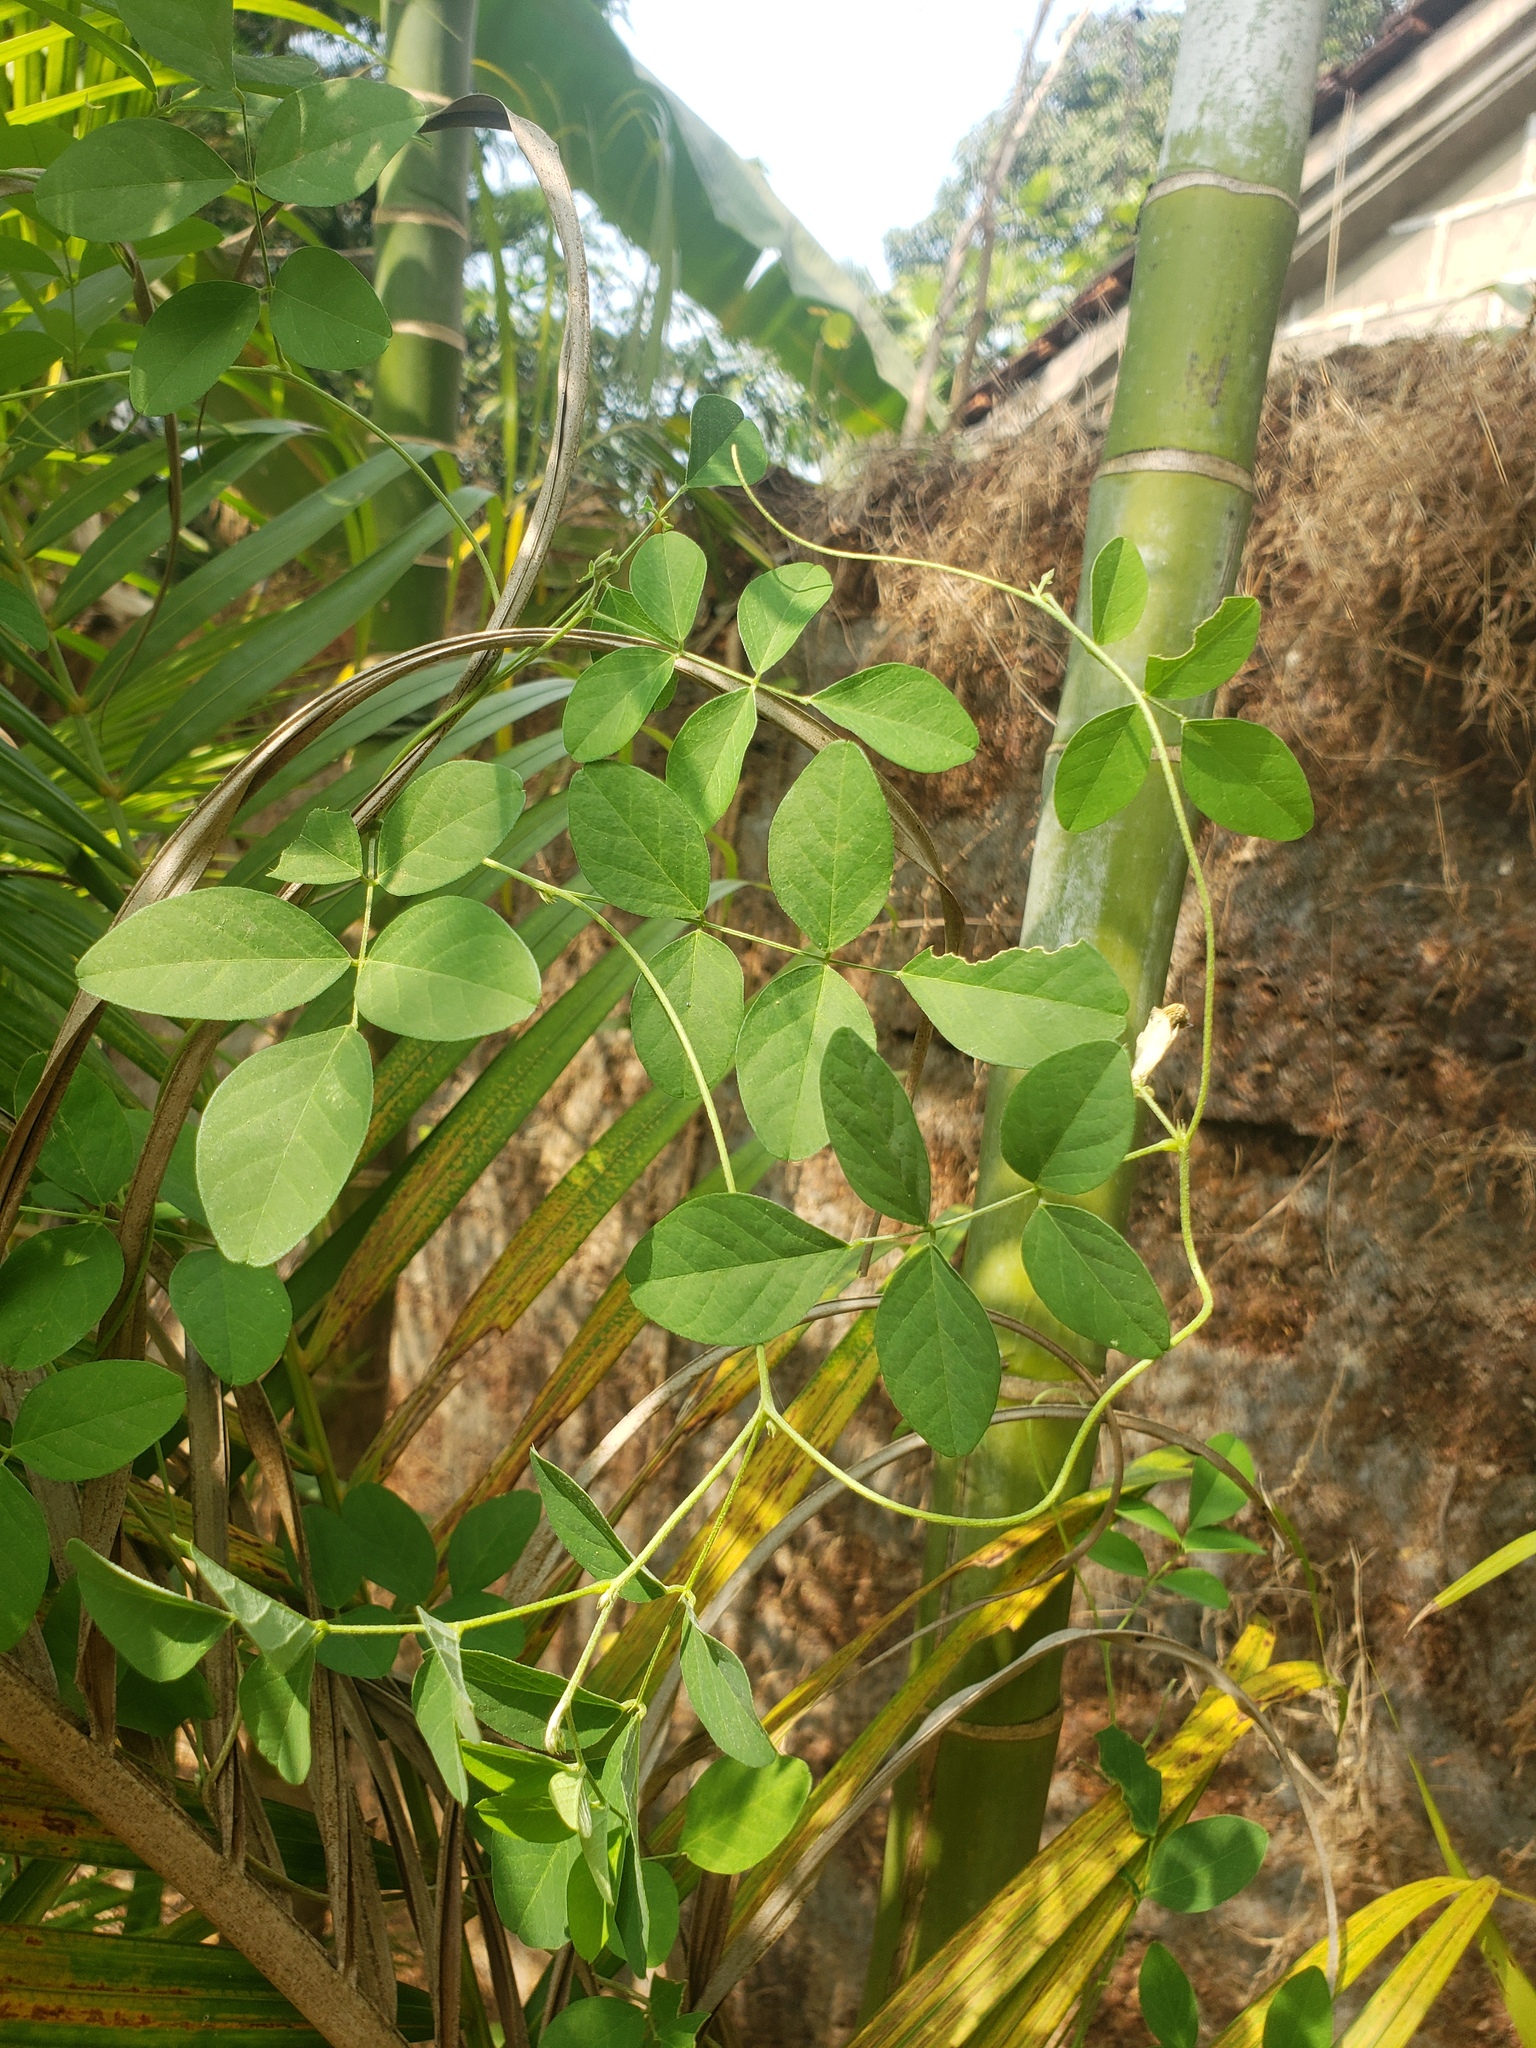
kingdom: Plantae
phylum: Tracheophyta
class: Magnoliopsida
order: Fabales
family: Fabaceae
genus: Clitoria
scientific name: Clitoria ternatea
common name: Asian pigeonwings
